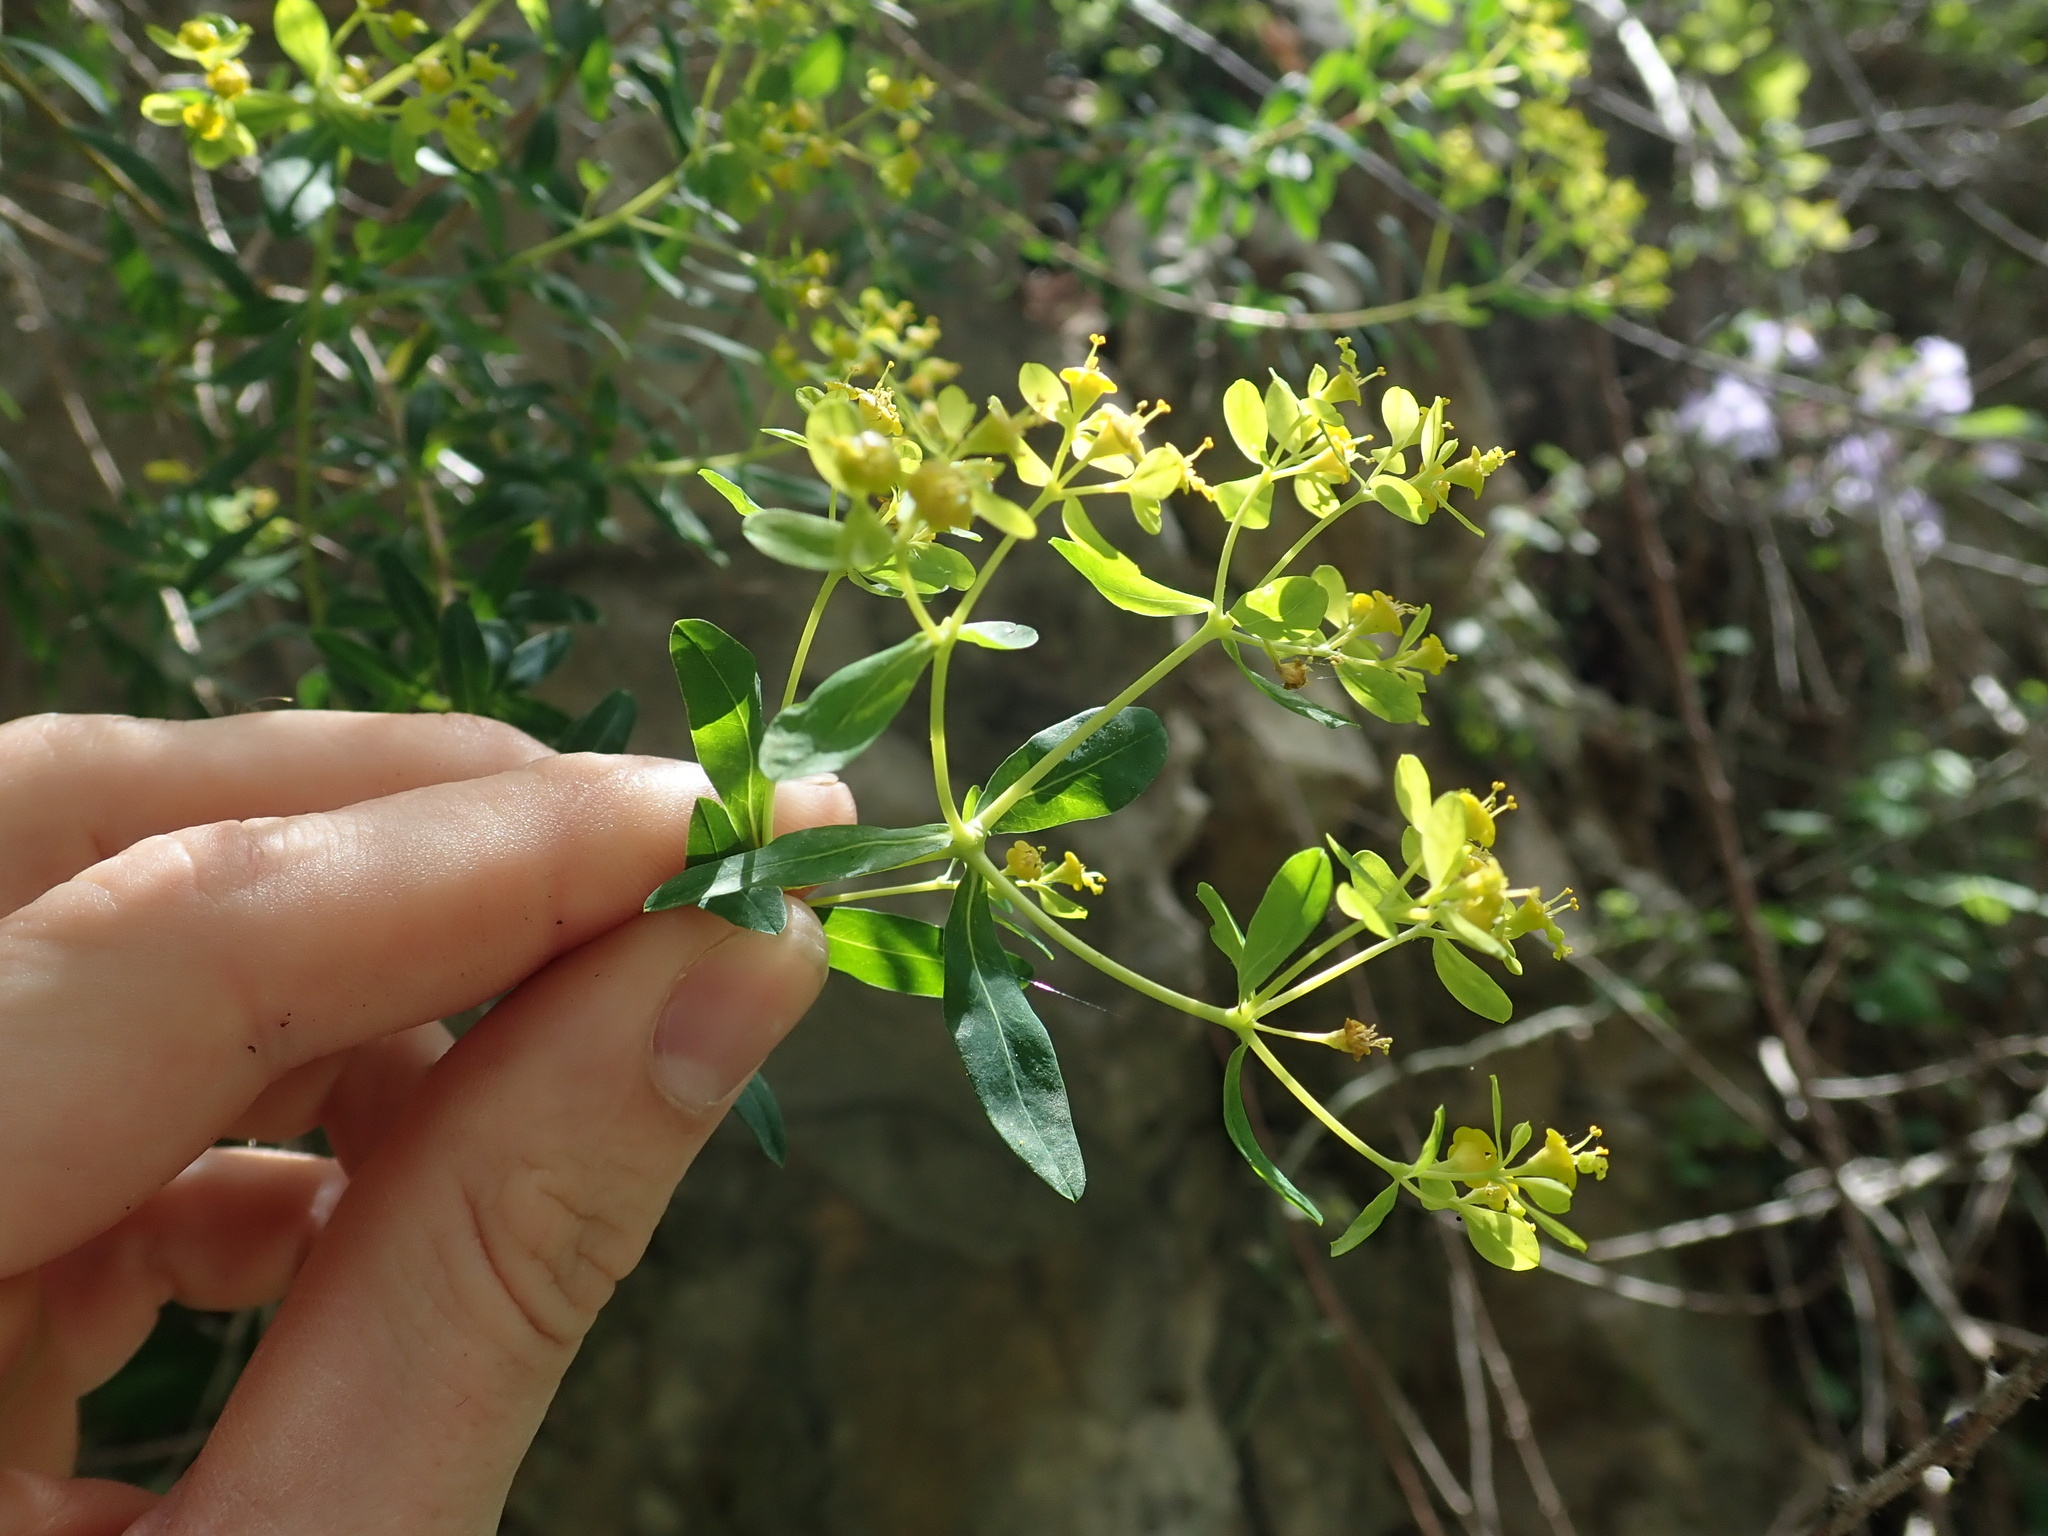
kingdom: Plantae
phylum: Tracheophyta
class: Magnoliopsida
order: Malpighiales
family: Euphorbiaceae
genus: Euphorbia
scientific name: Euphorbia hierosolymitana
